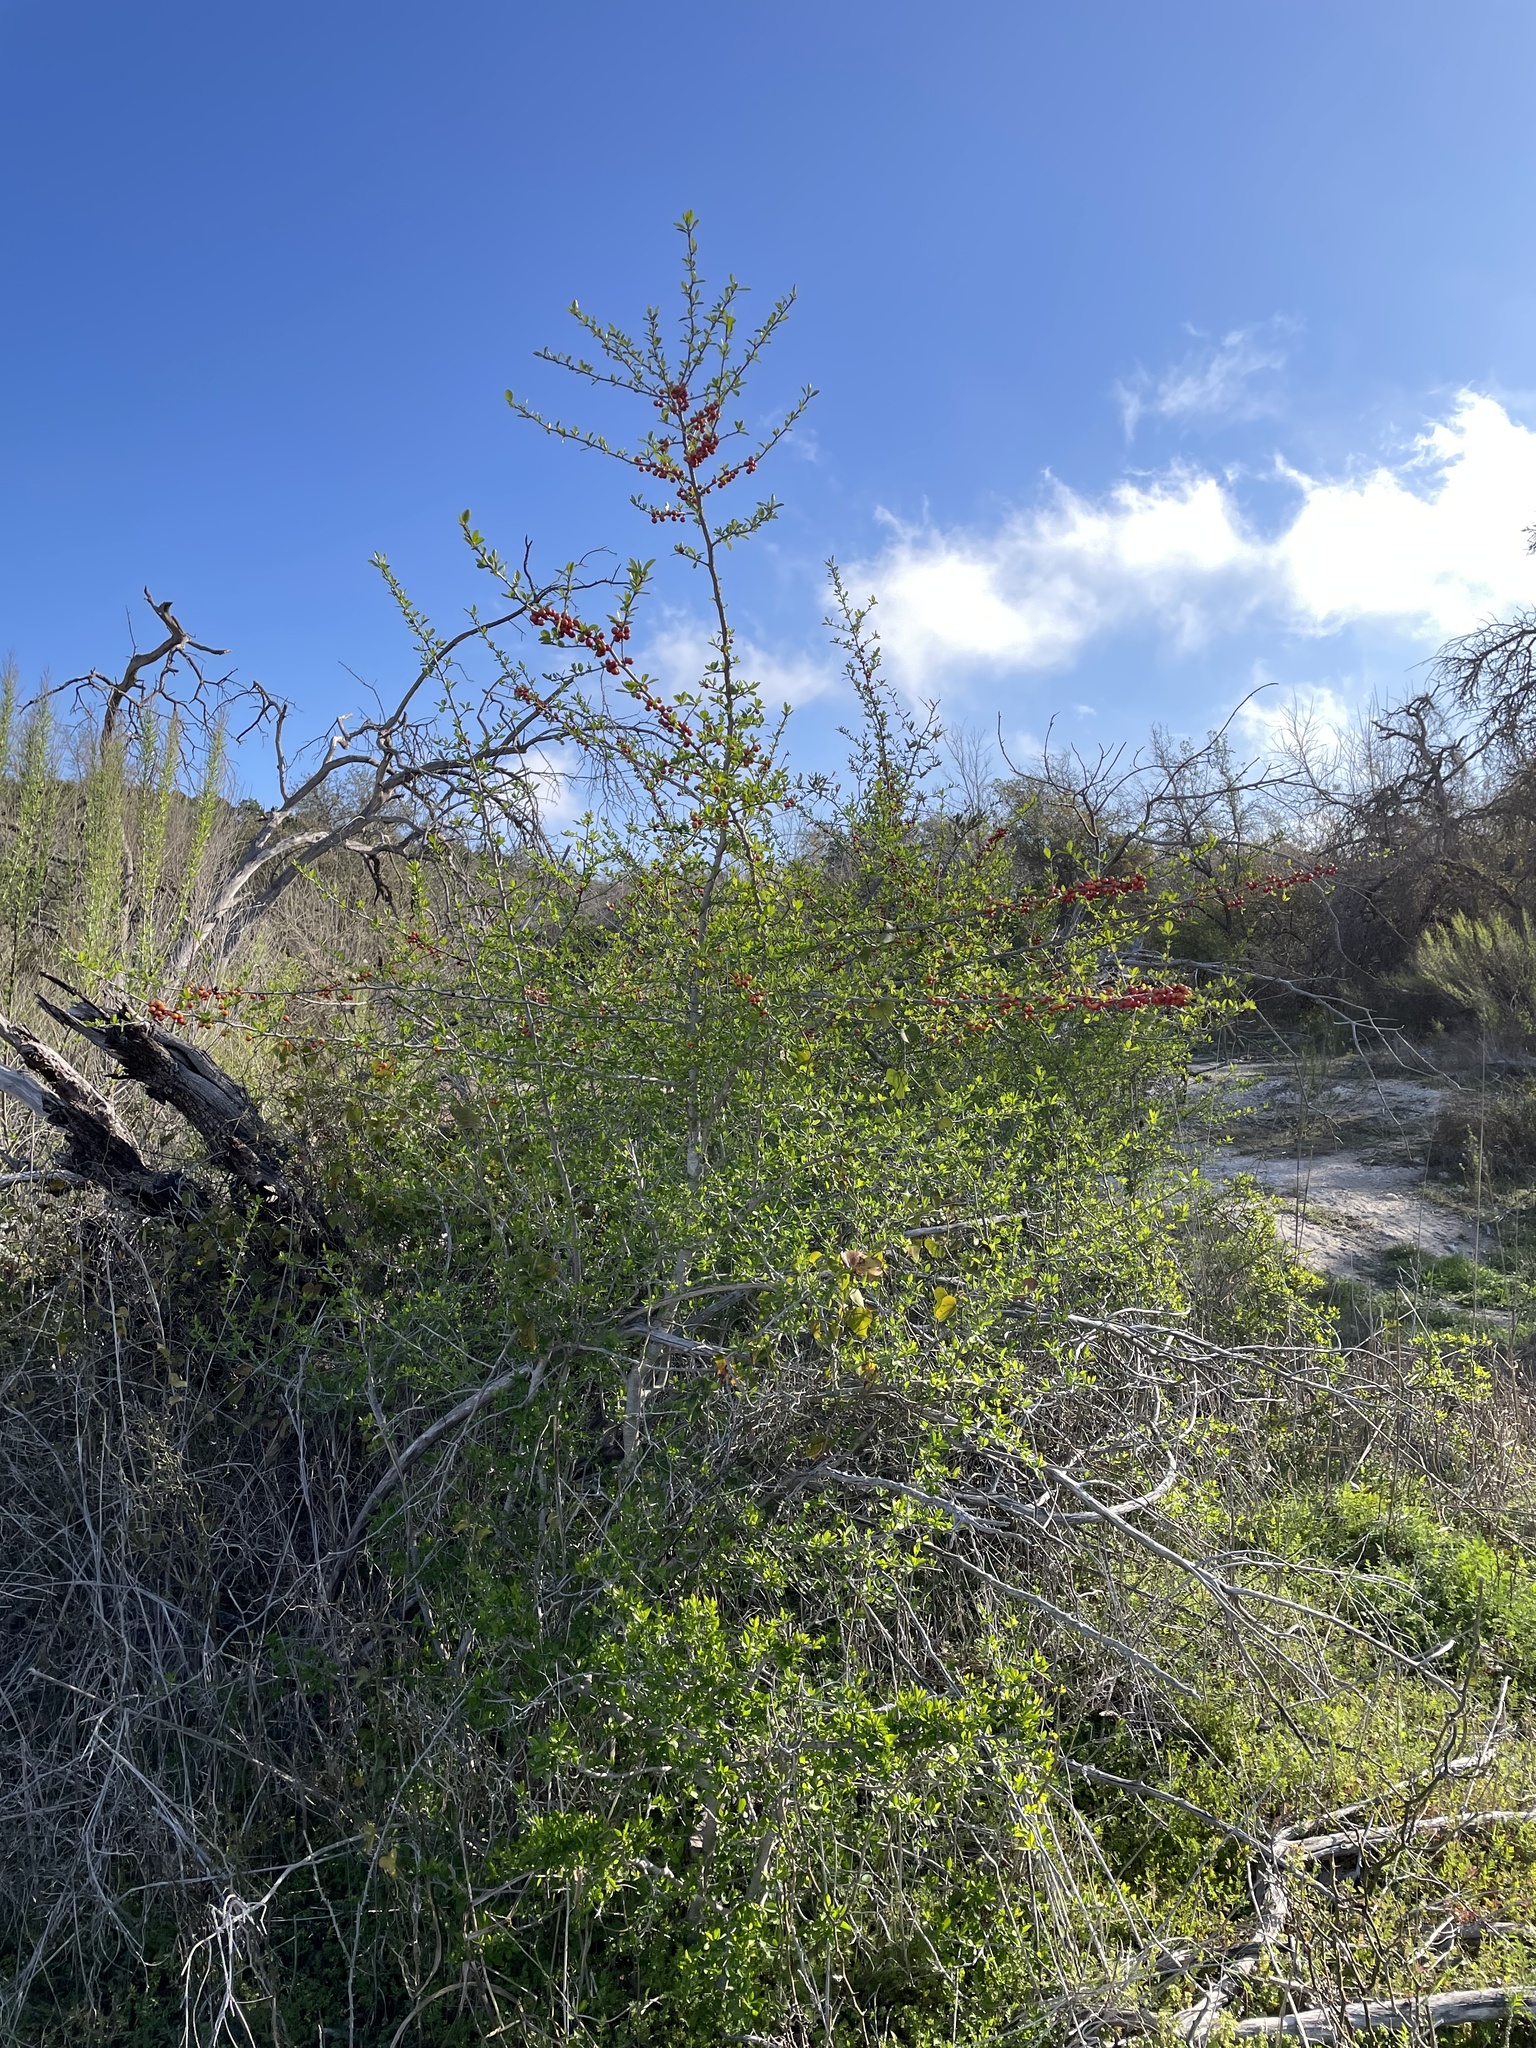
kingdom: Plantae
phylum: Tracheophyta
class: Magnoliopsida
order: Aquifoliales
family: Aquifoliaceae
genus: Ilex
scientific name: Ilex decidua
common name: Possum-haw
